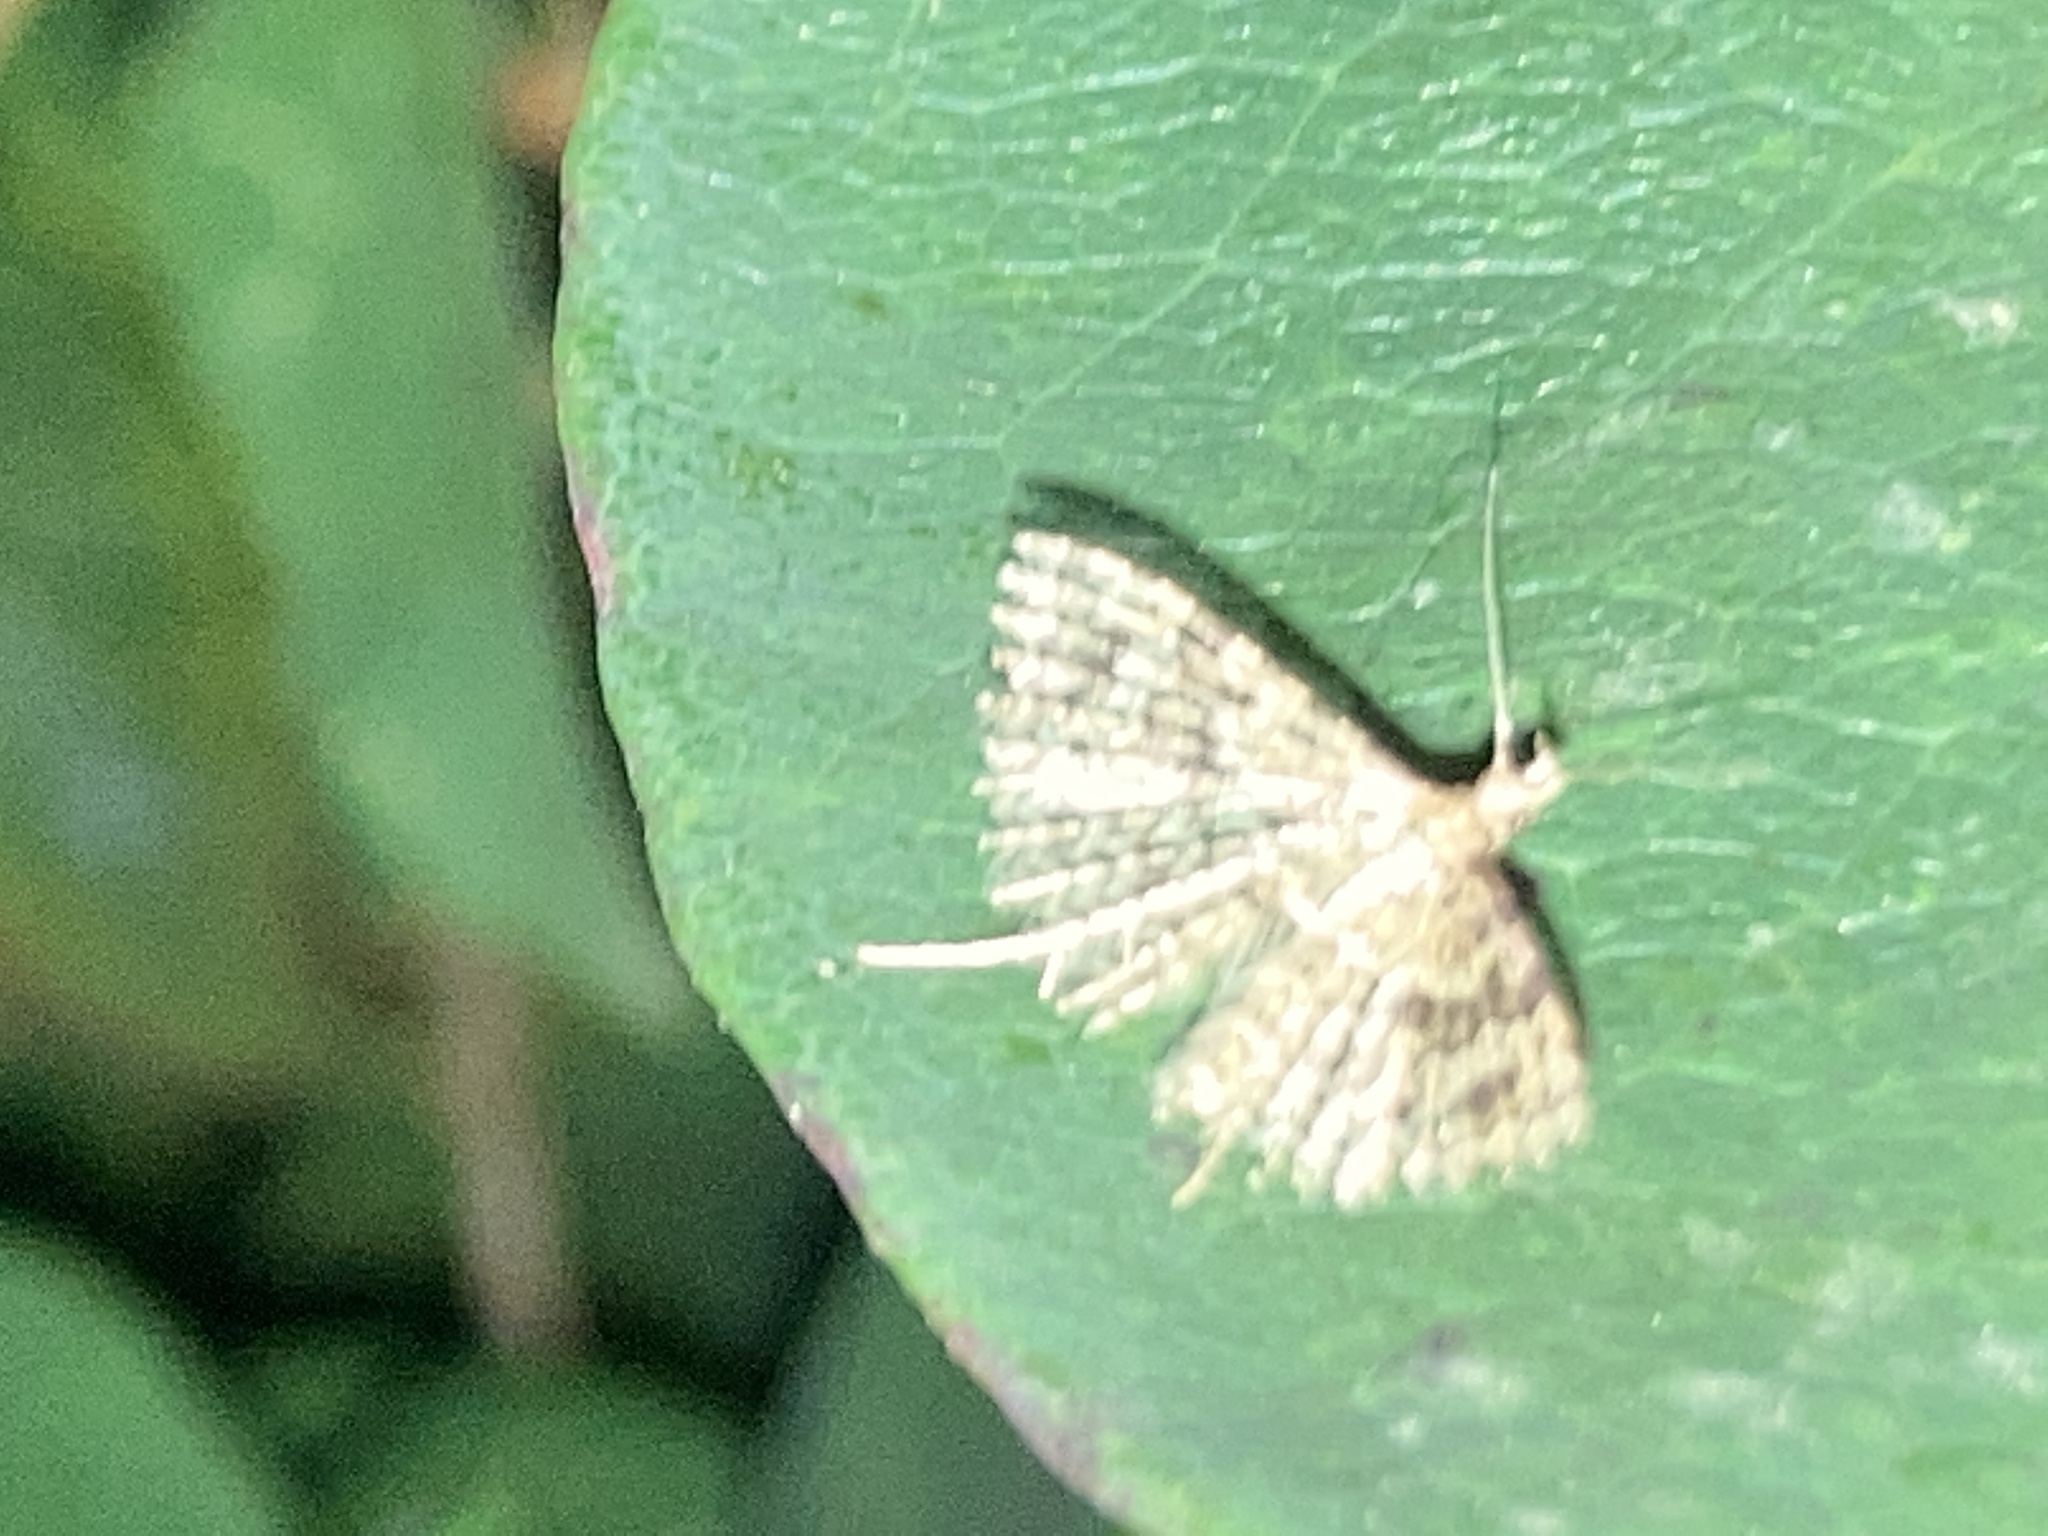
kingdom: Animalia
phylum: Arthropoda
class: Insecta
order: Lepidoptera
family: Alucitidae
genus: Alucita
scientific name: Alucita hexadactyla
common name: Twenty-plume moth
